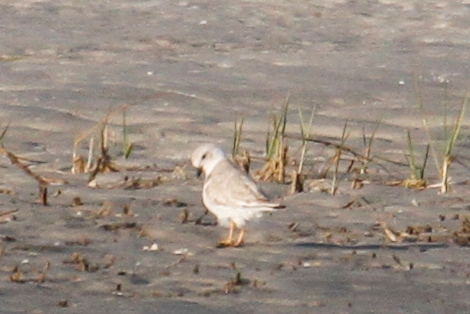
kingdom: Animalia
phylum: Chordata
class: Aves
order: Charadriiformes
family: Charadriidae
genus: Charadrius
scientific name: Charadrius melodus
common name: Piping plover
